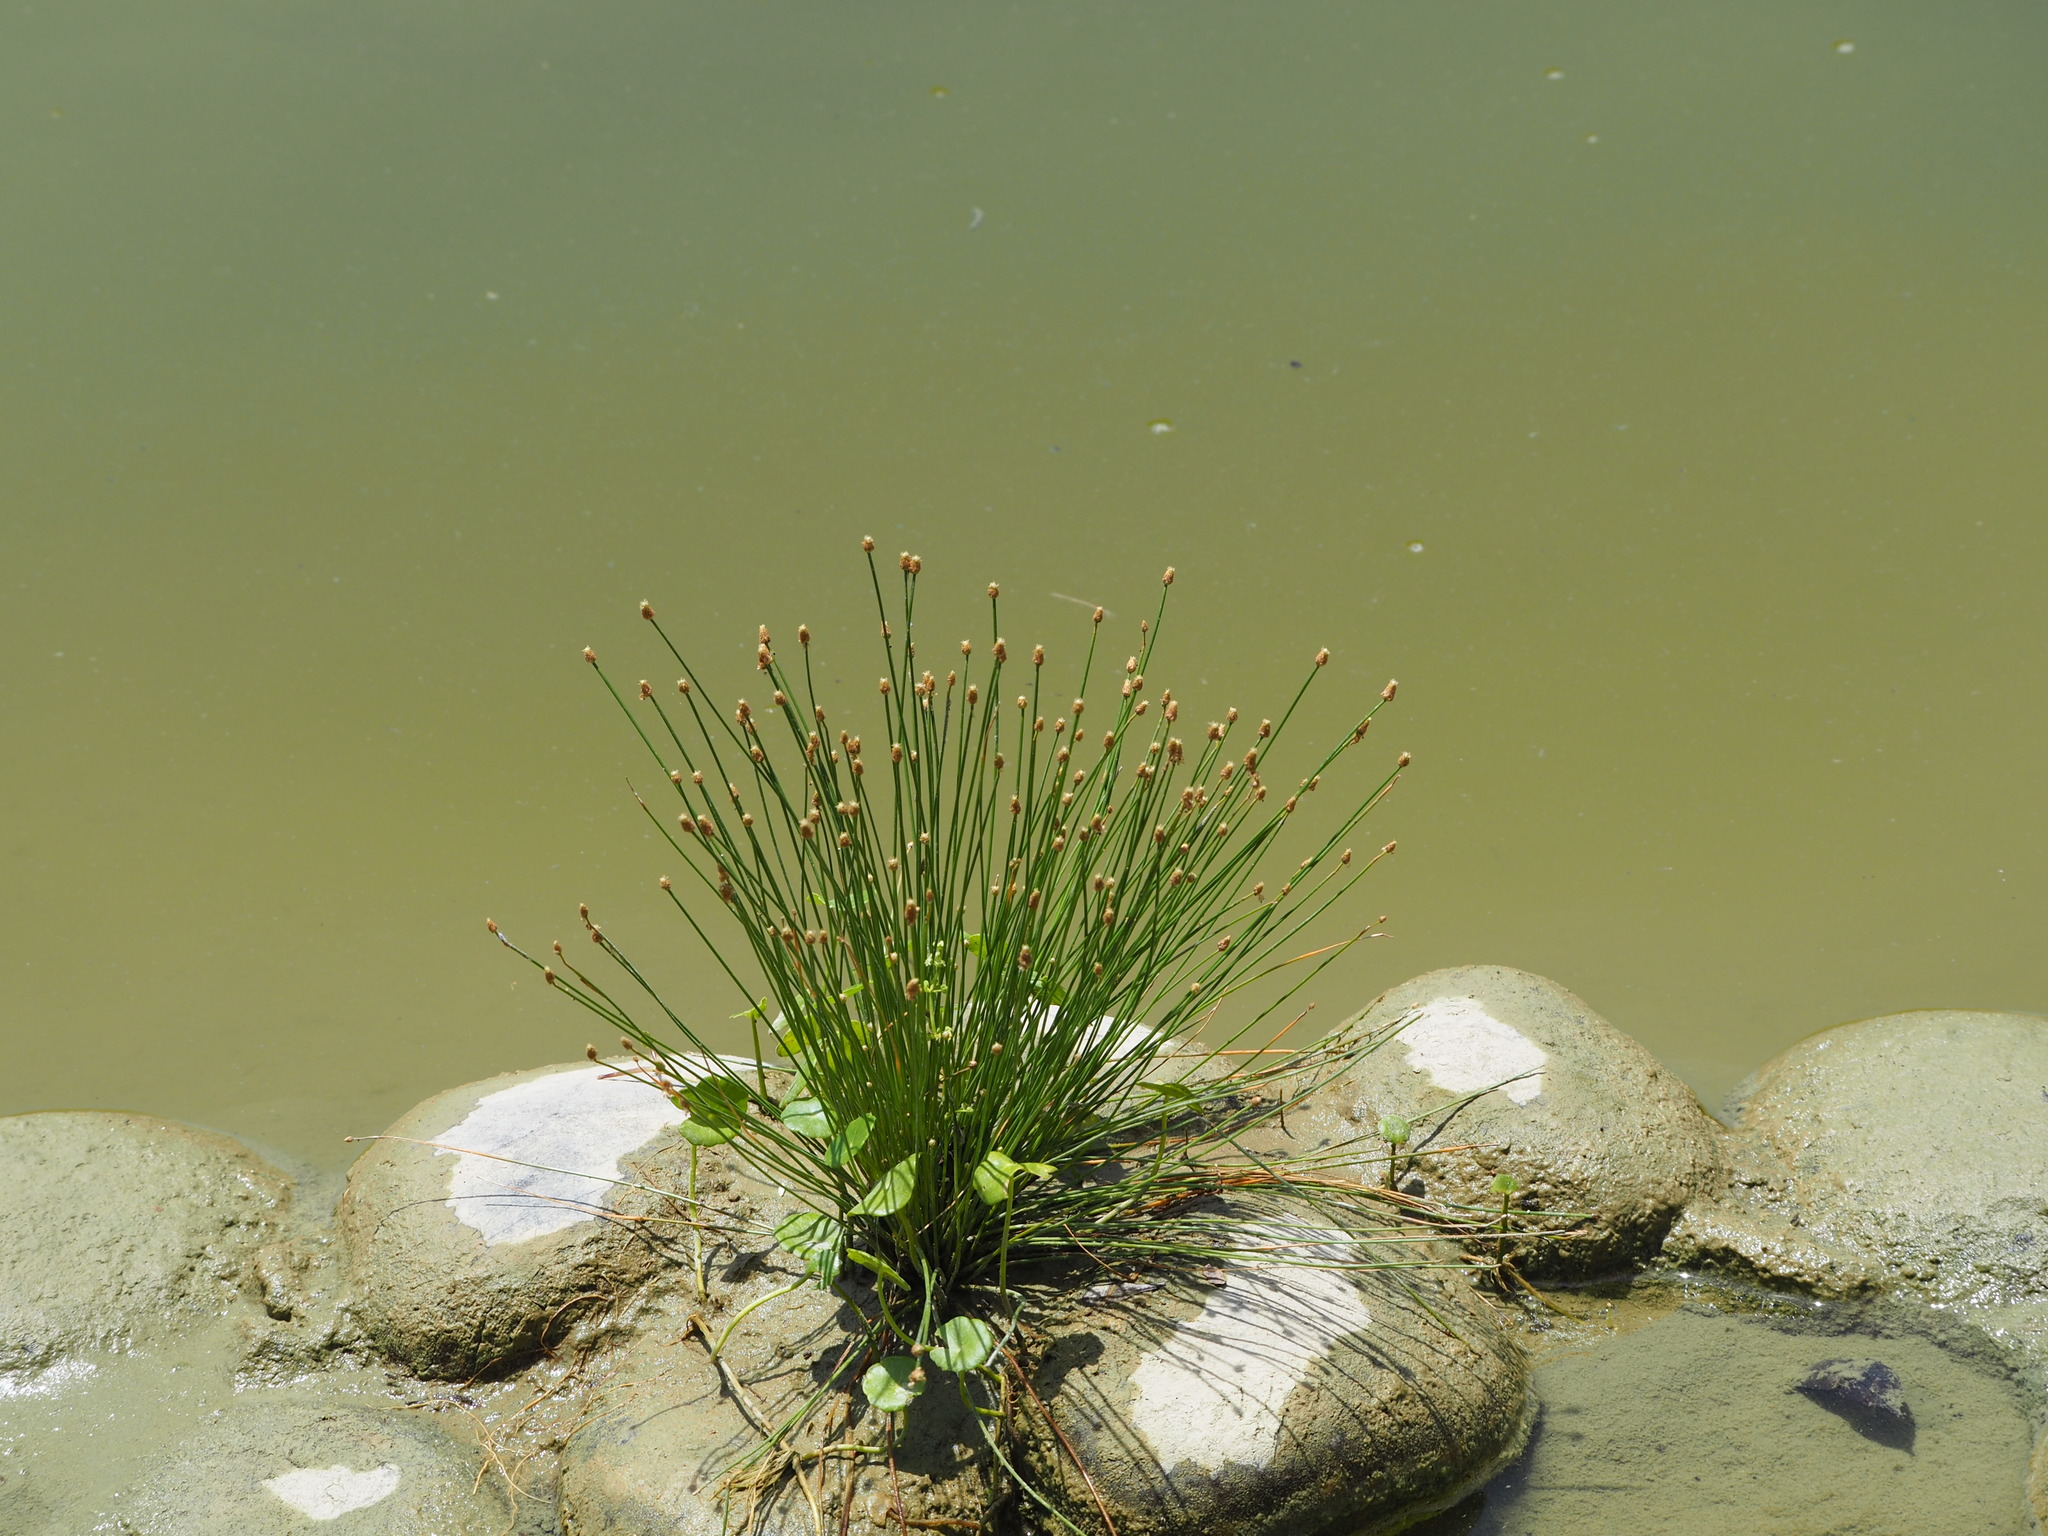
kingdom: Plantae
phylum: Tracheophyta
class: Liliopsida
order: Poales
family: Cyperaceae
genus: Eleocharis
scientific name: Eleocharis geniculata
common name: Canada spikesedge
